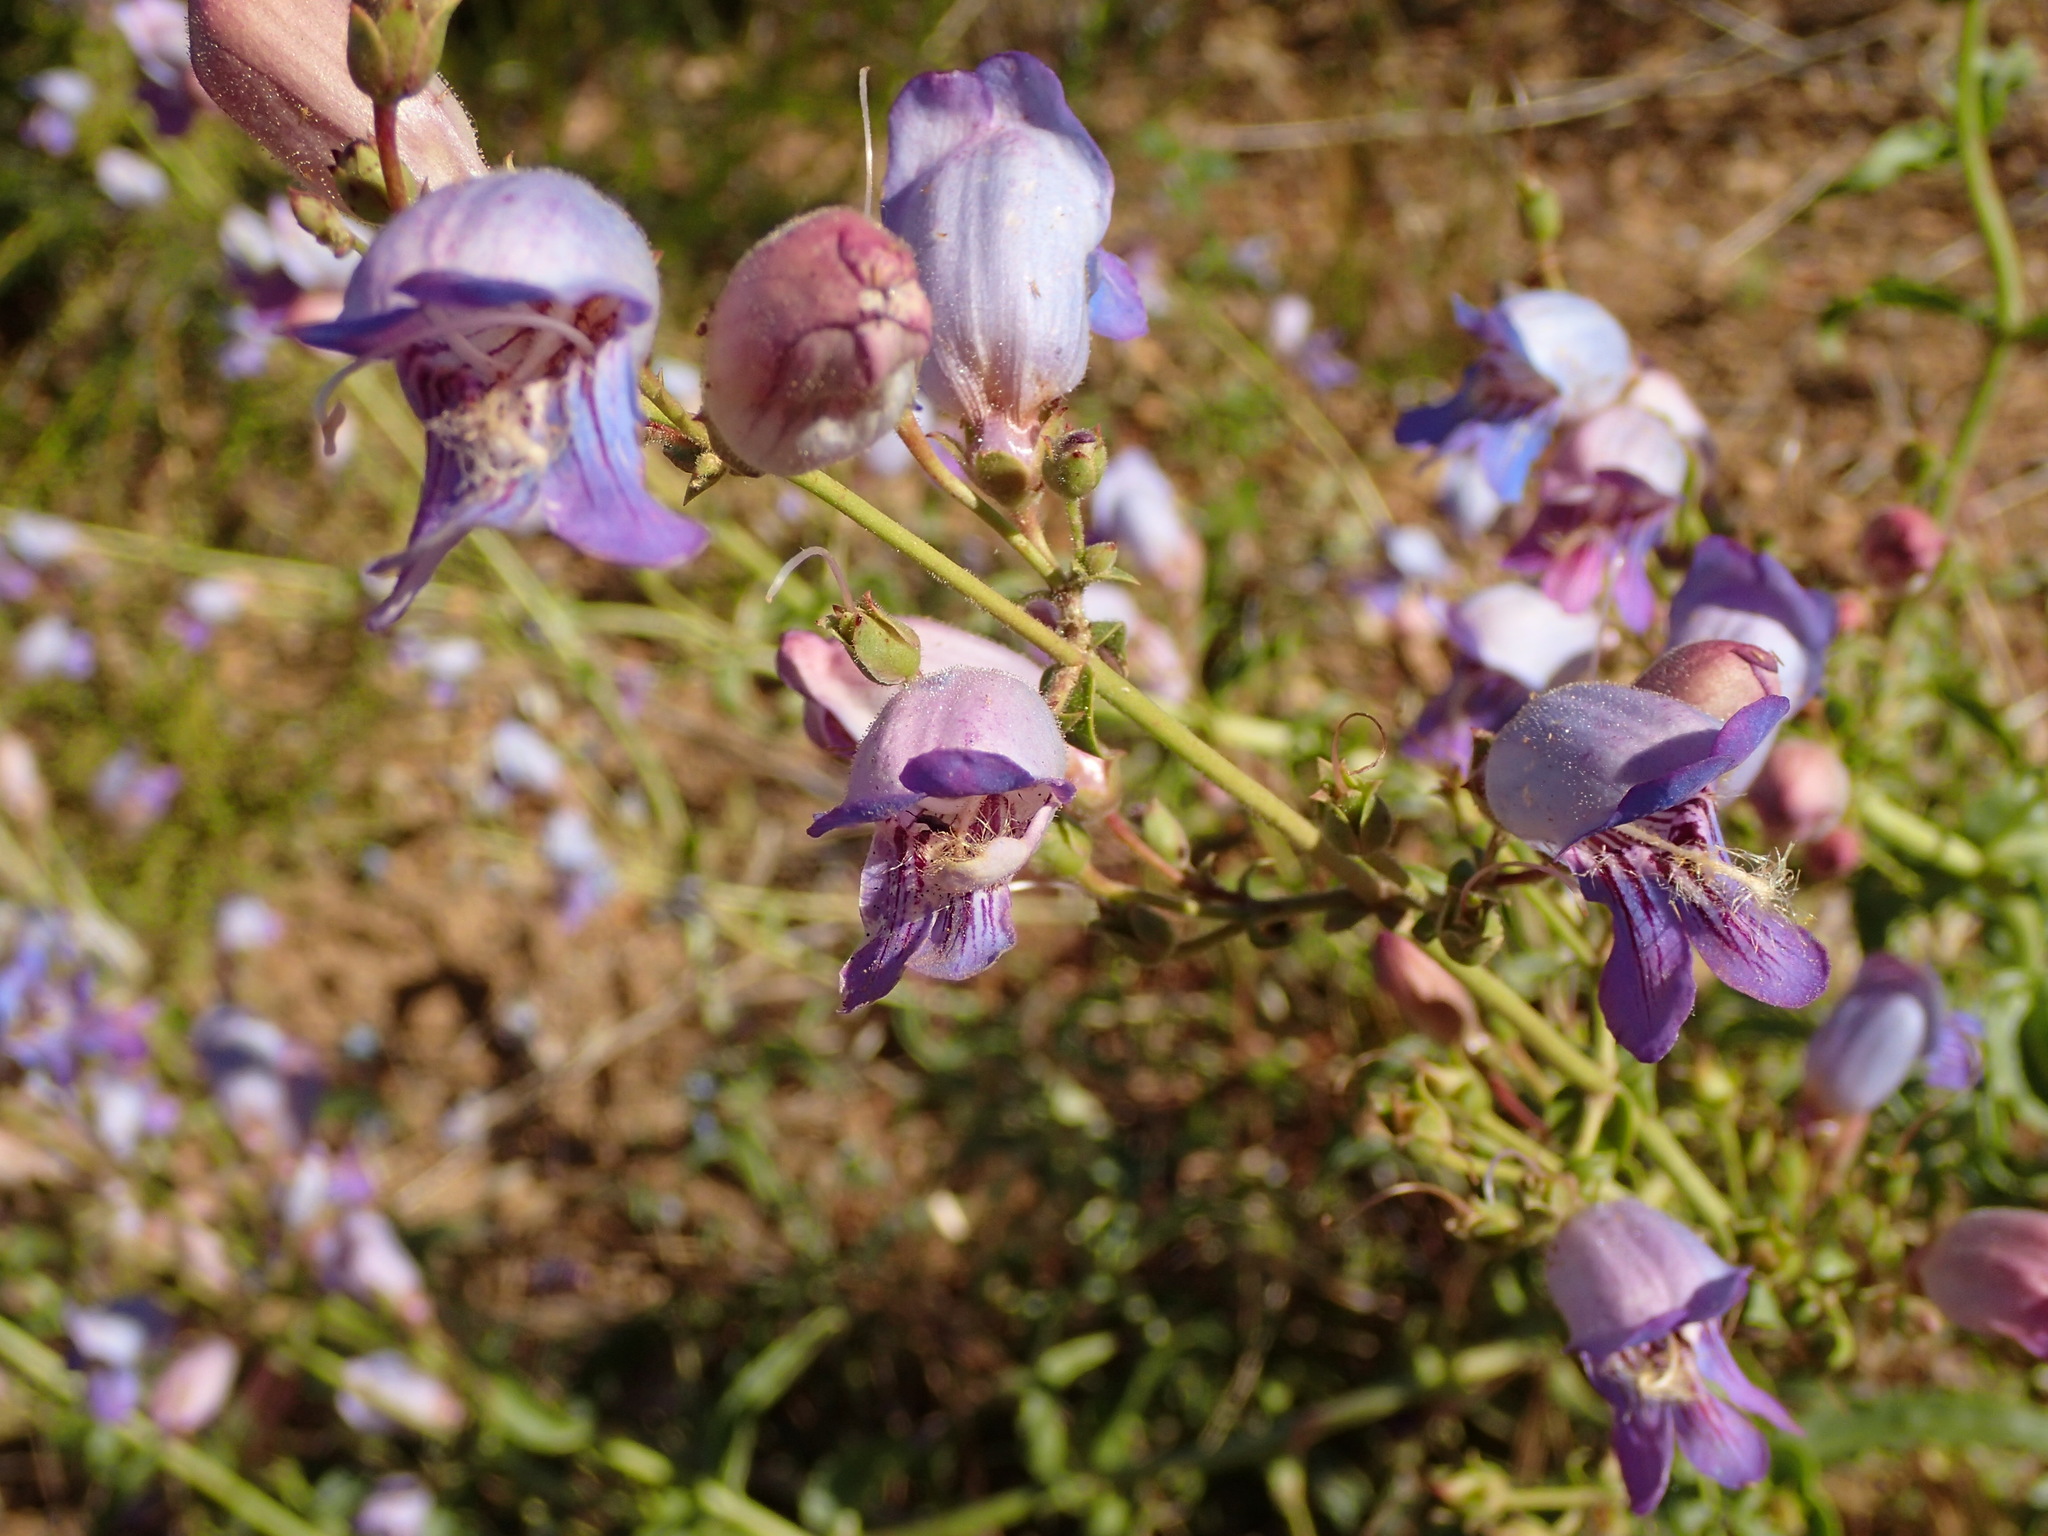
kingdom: Plantae
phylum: Tracheophyta
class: Magnoliopsida
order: Lamiales
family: Plantaginaceae
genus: Penstemon
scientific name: Penstemon grinnellii
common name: Grinnell's beardtongue
